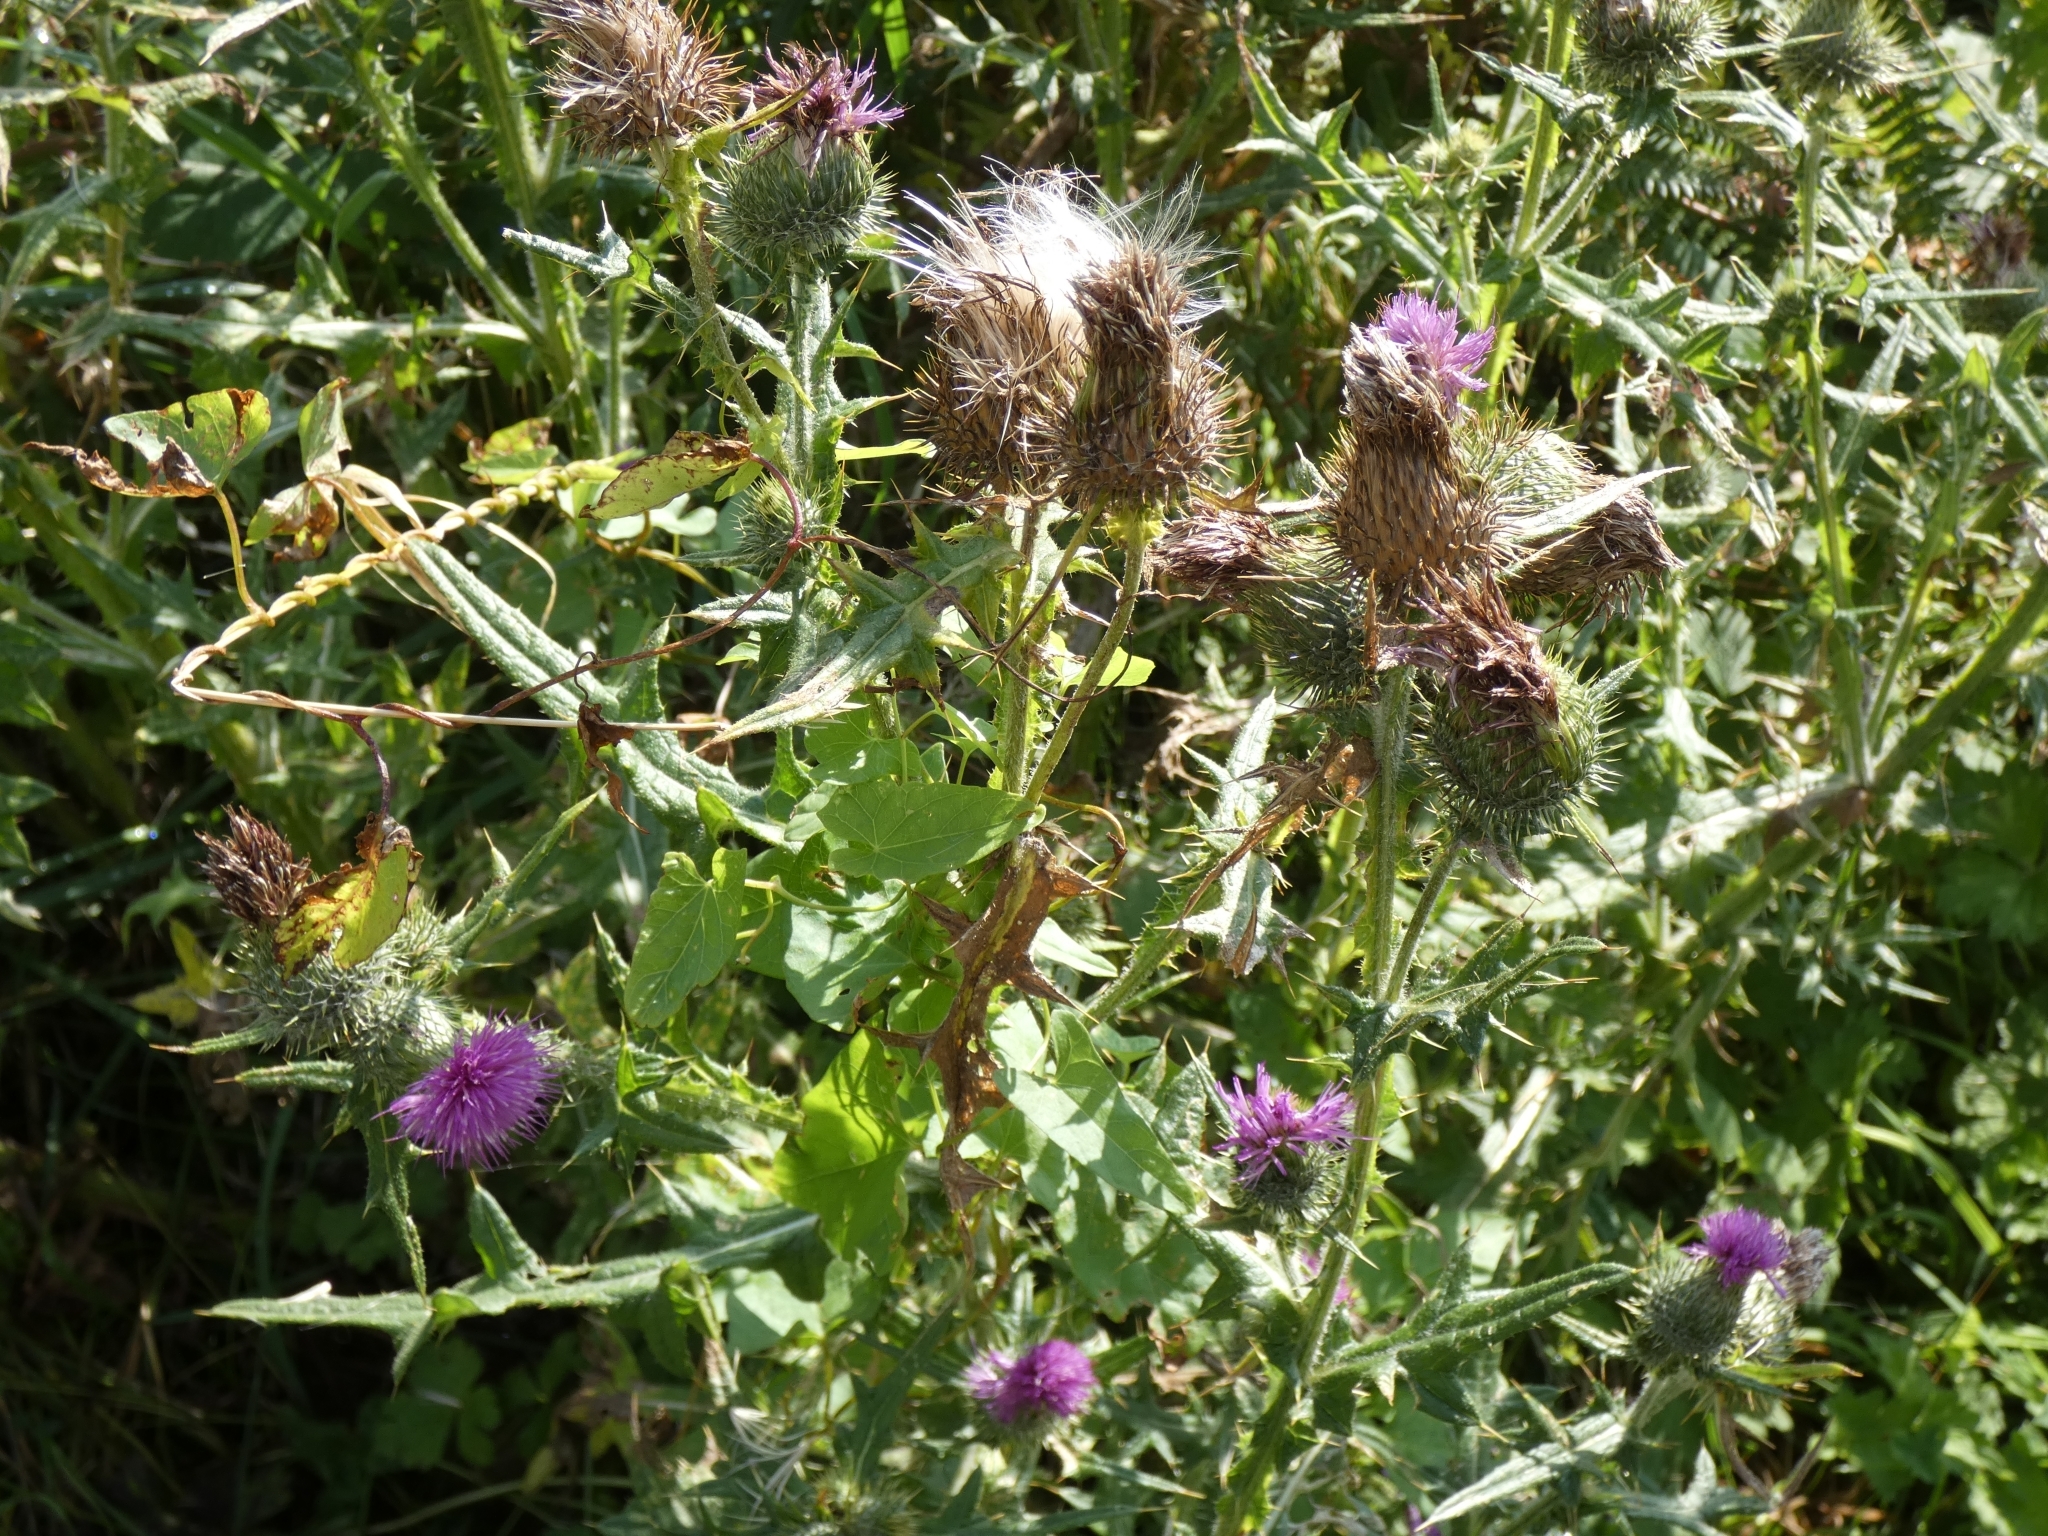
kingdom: Plantae
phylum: Tracheophyta
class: Magnoliopsida
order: Asterales
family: Asteraceae
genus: Cirsium
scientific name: Cirsium arvense
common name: Creeping thistle
